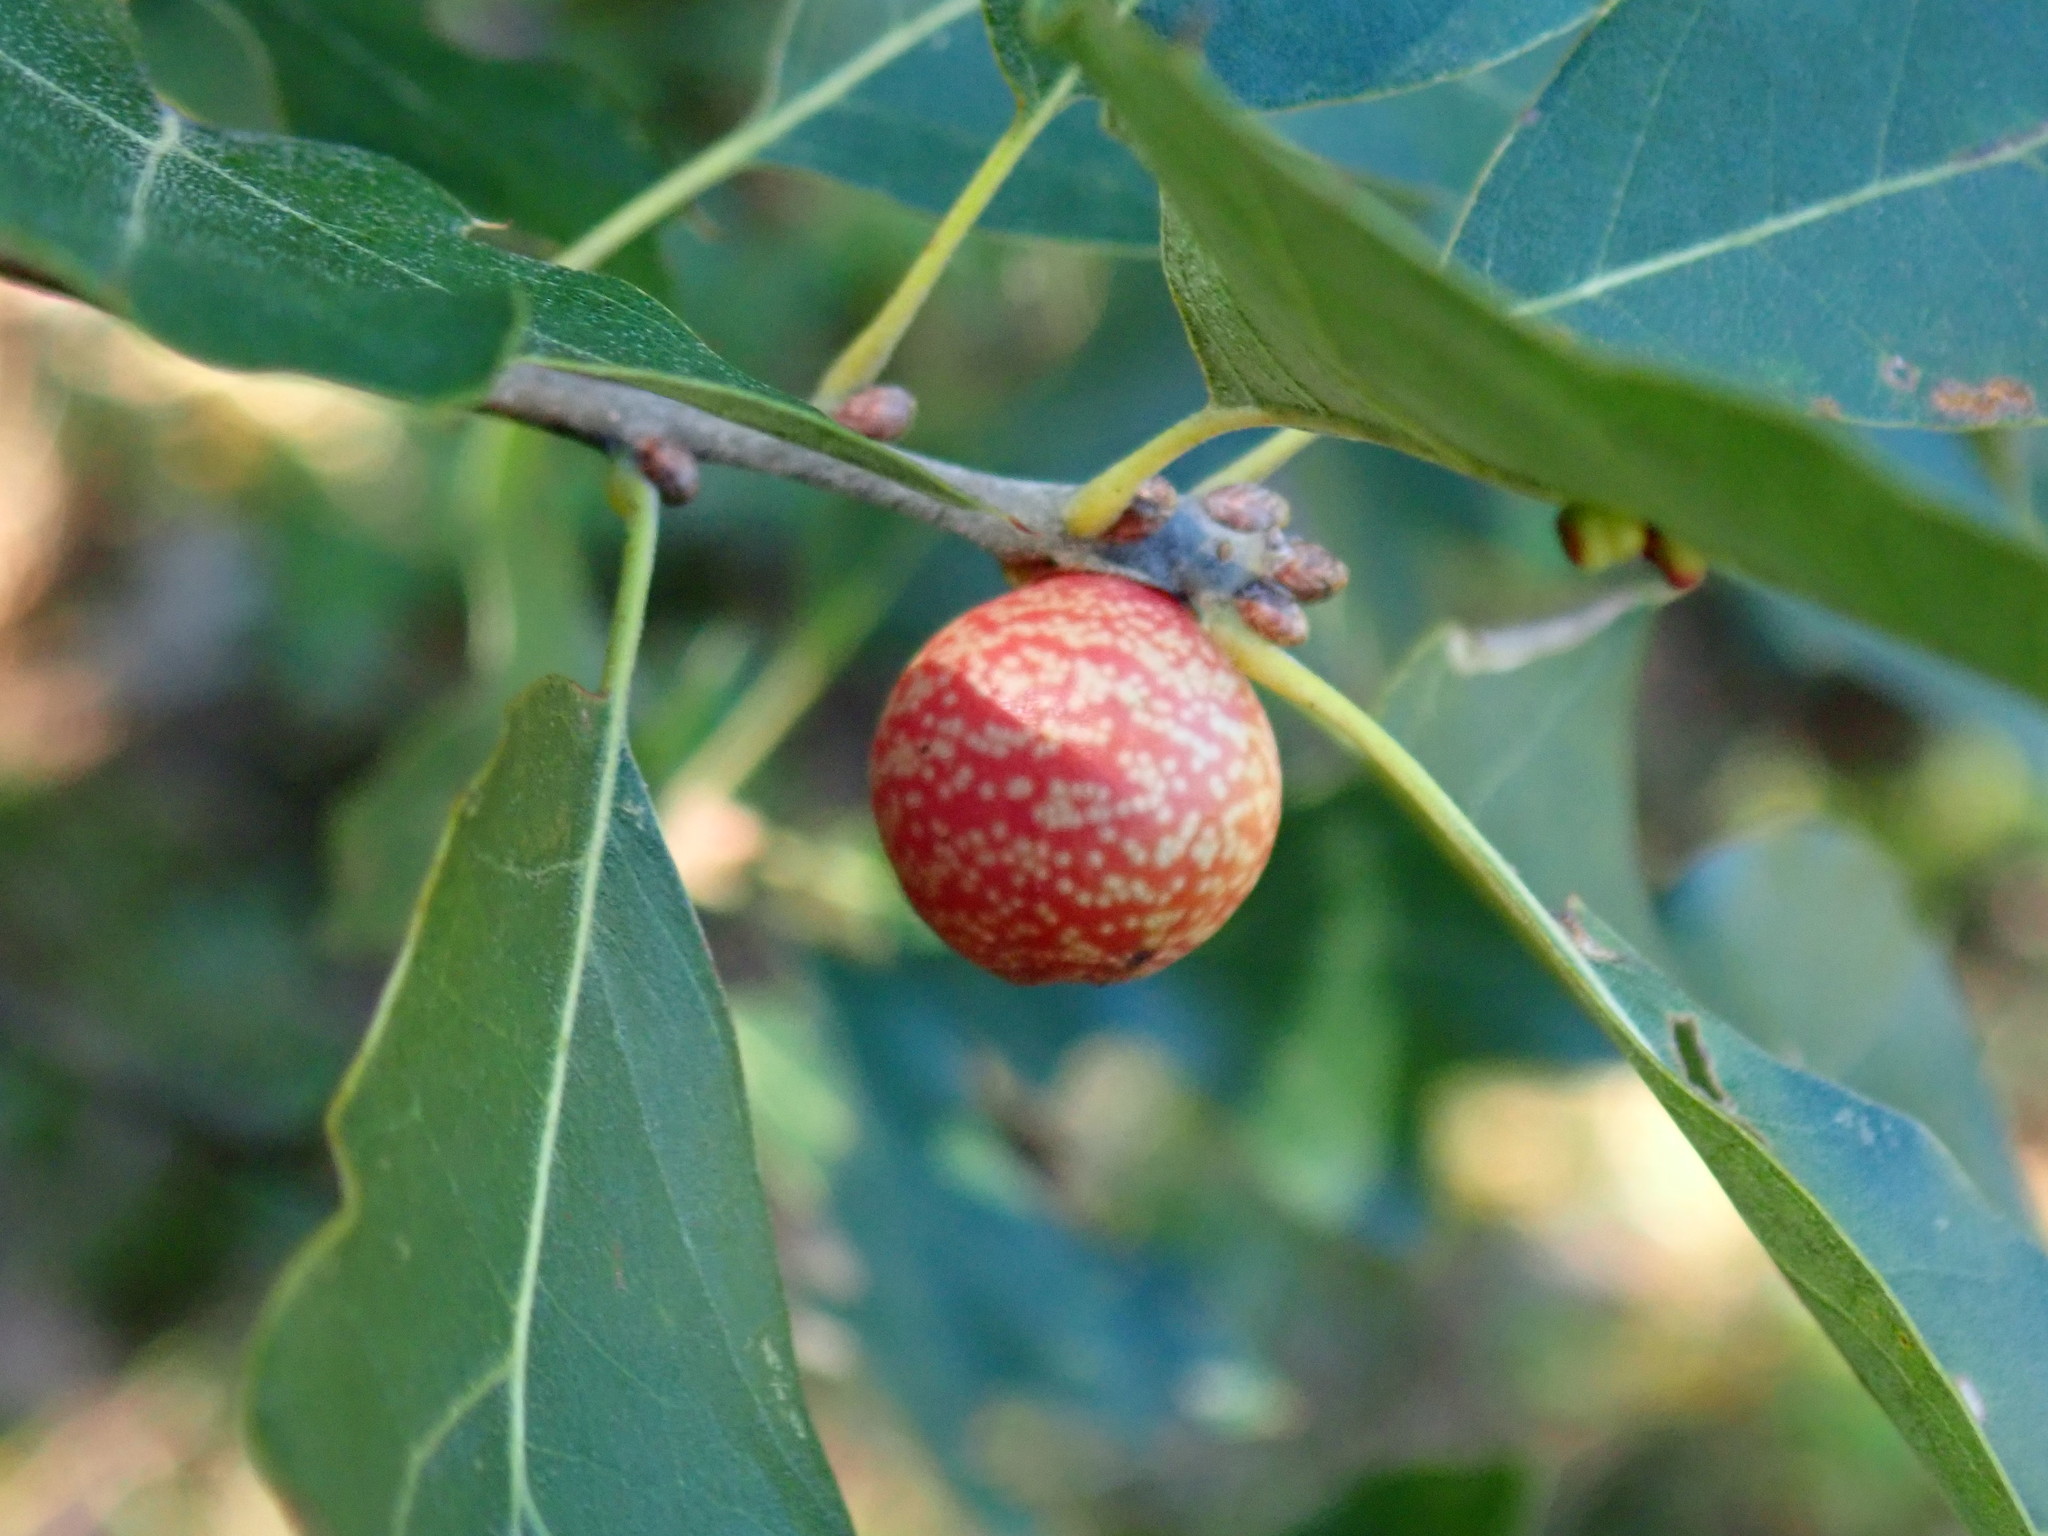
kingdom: Animalia
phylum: Arthropoda
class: Insecta
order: Hymenoptera
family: Cynipidae
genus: Kokkocynips
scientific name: Kokkocynips imbricariae
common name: Banded bullet gall wasp
